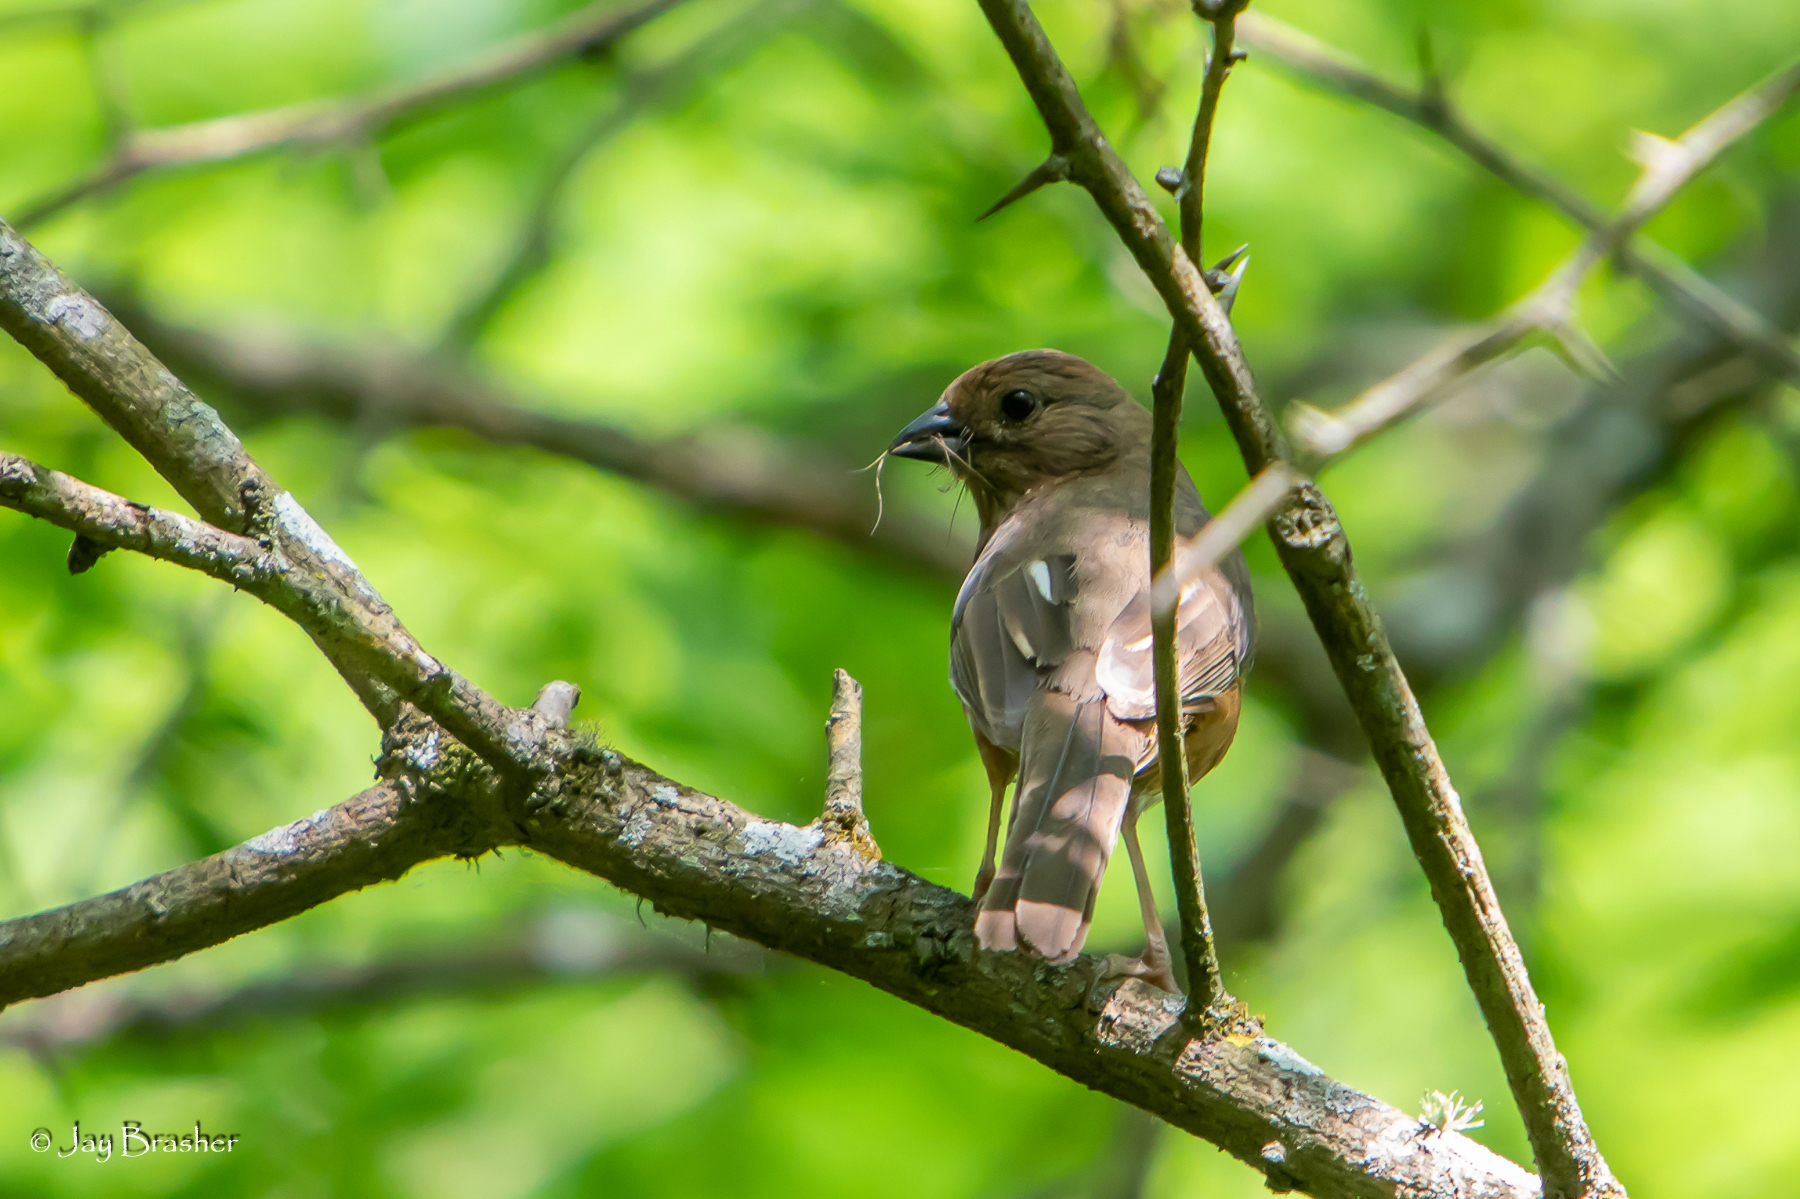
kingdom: Animalia
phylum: Chordata
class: Aves
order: Passeriformes
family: Passerellidae
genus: Pipilo
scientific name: Pipilo erythrophthalmus
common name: Eastern towhee
